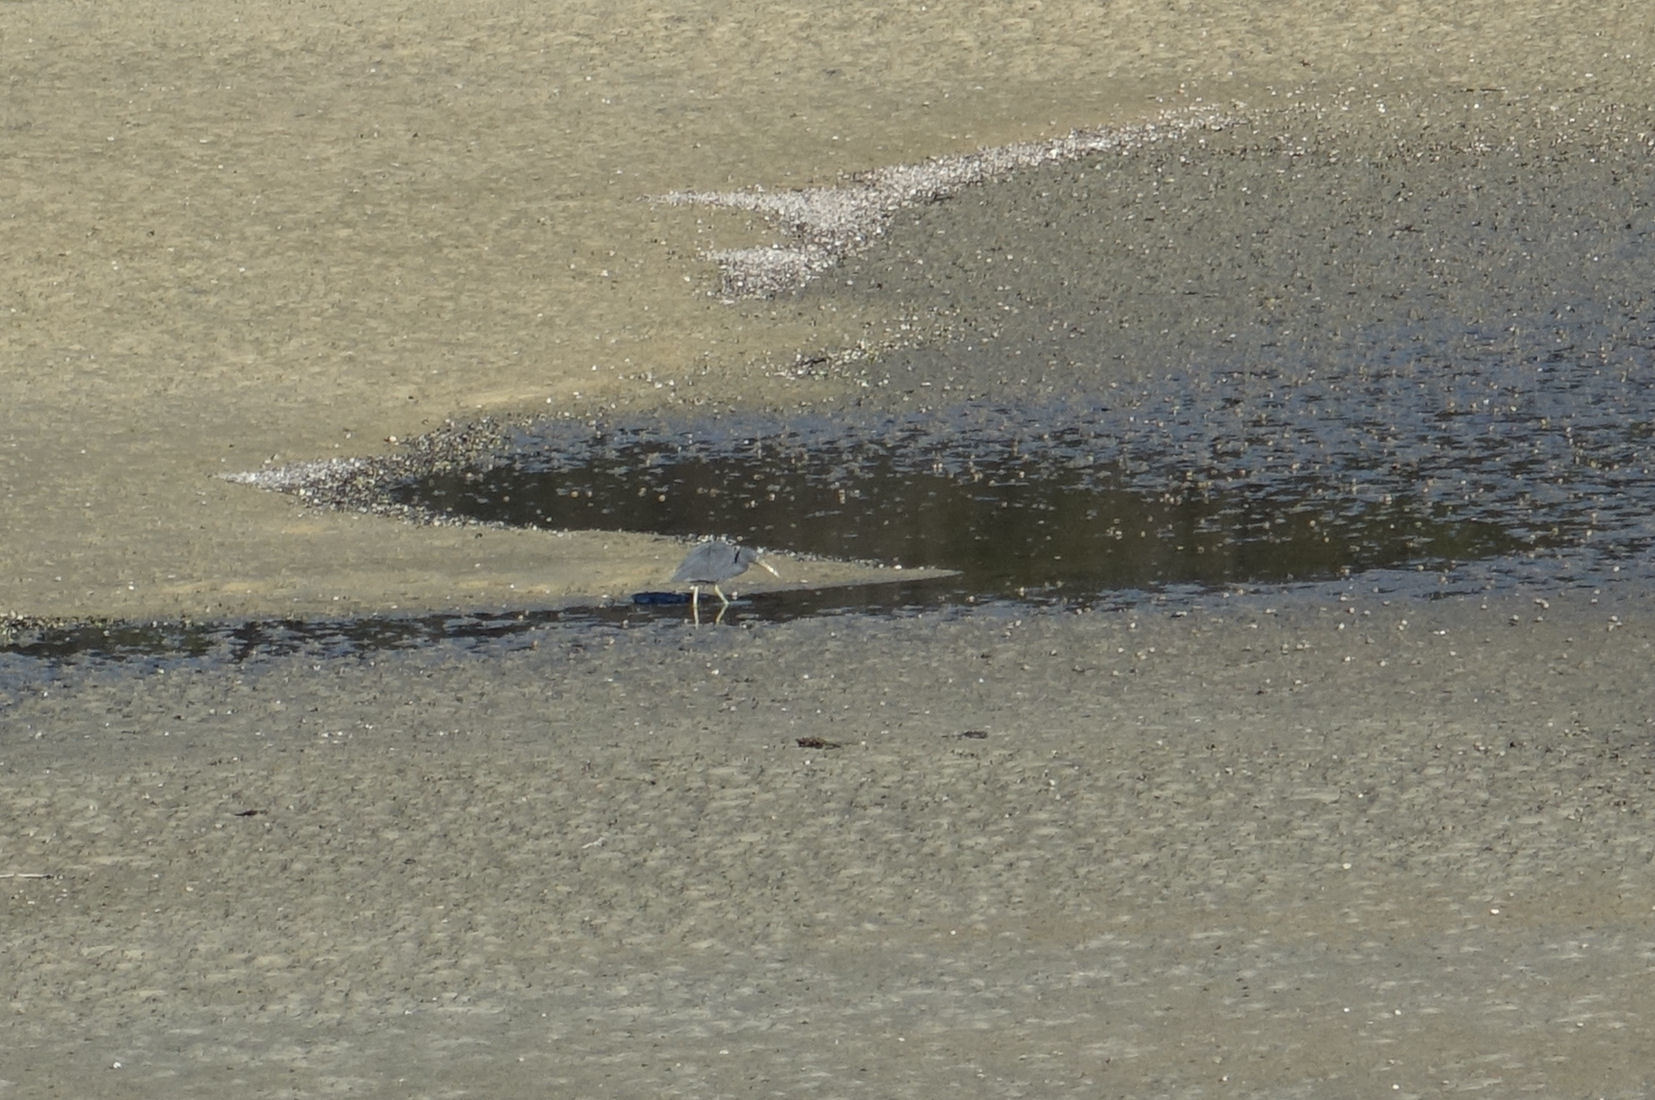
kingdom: Animalia
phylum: Chordata
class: Aves
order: Pelecaniformes
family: Ardeidae
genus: Egretta
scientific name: Egretta sacra
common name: Pacific reef heron
